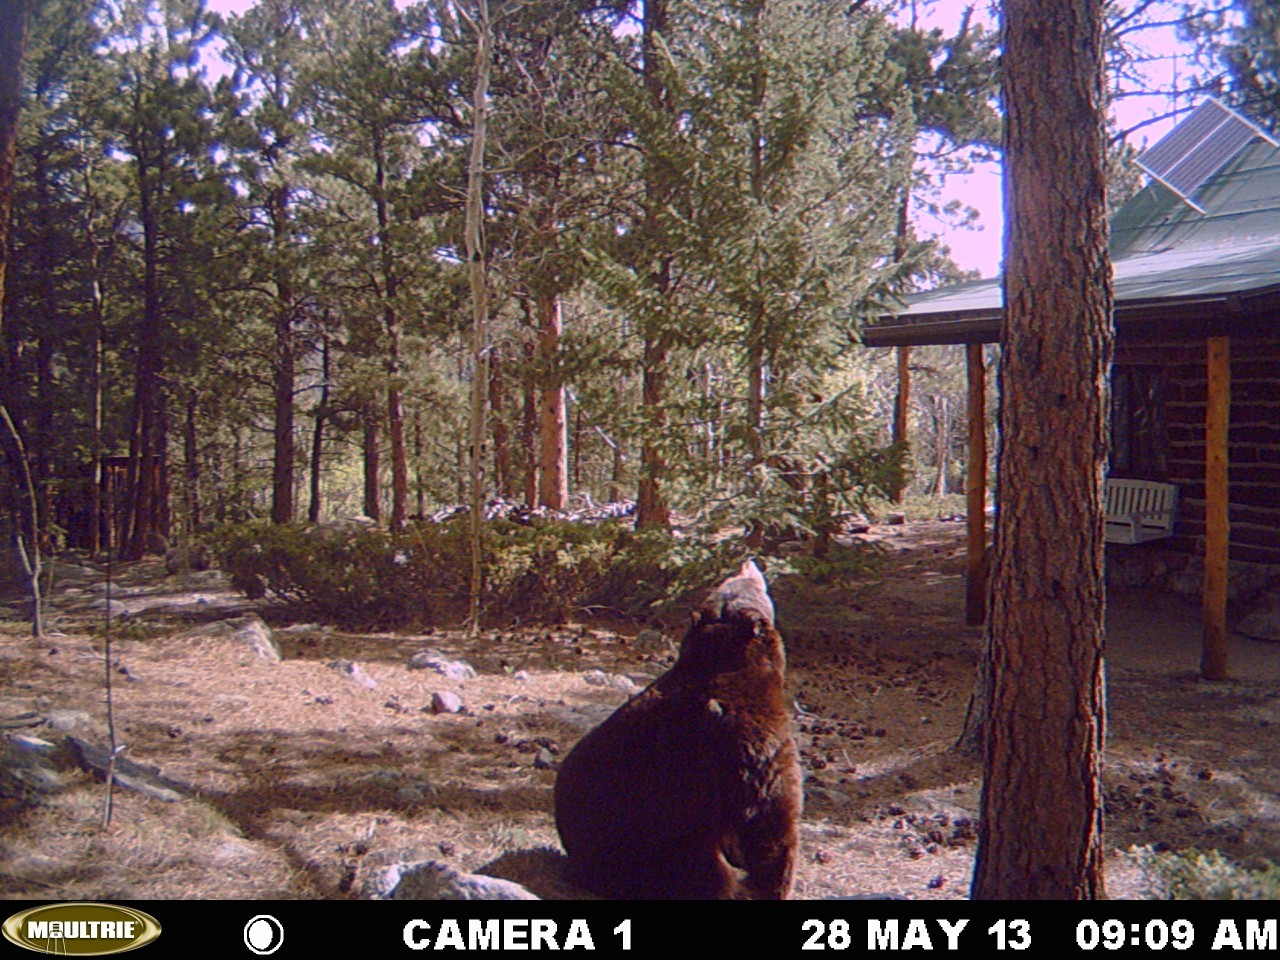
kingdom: Animalia
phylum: Chordata
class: Mammalia
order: Carnivora
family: Ursidae
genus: Ursus
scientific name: Ursus americanus
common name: American black bear
